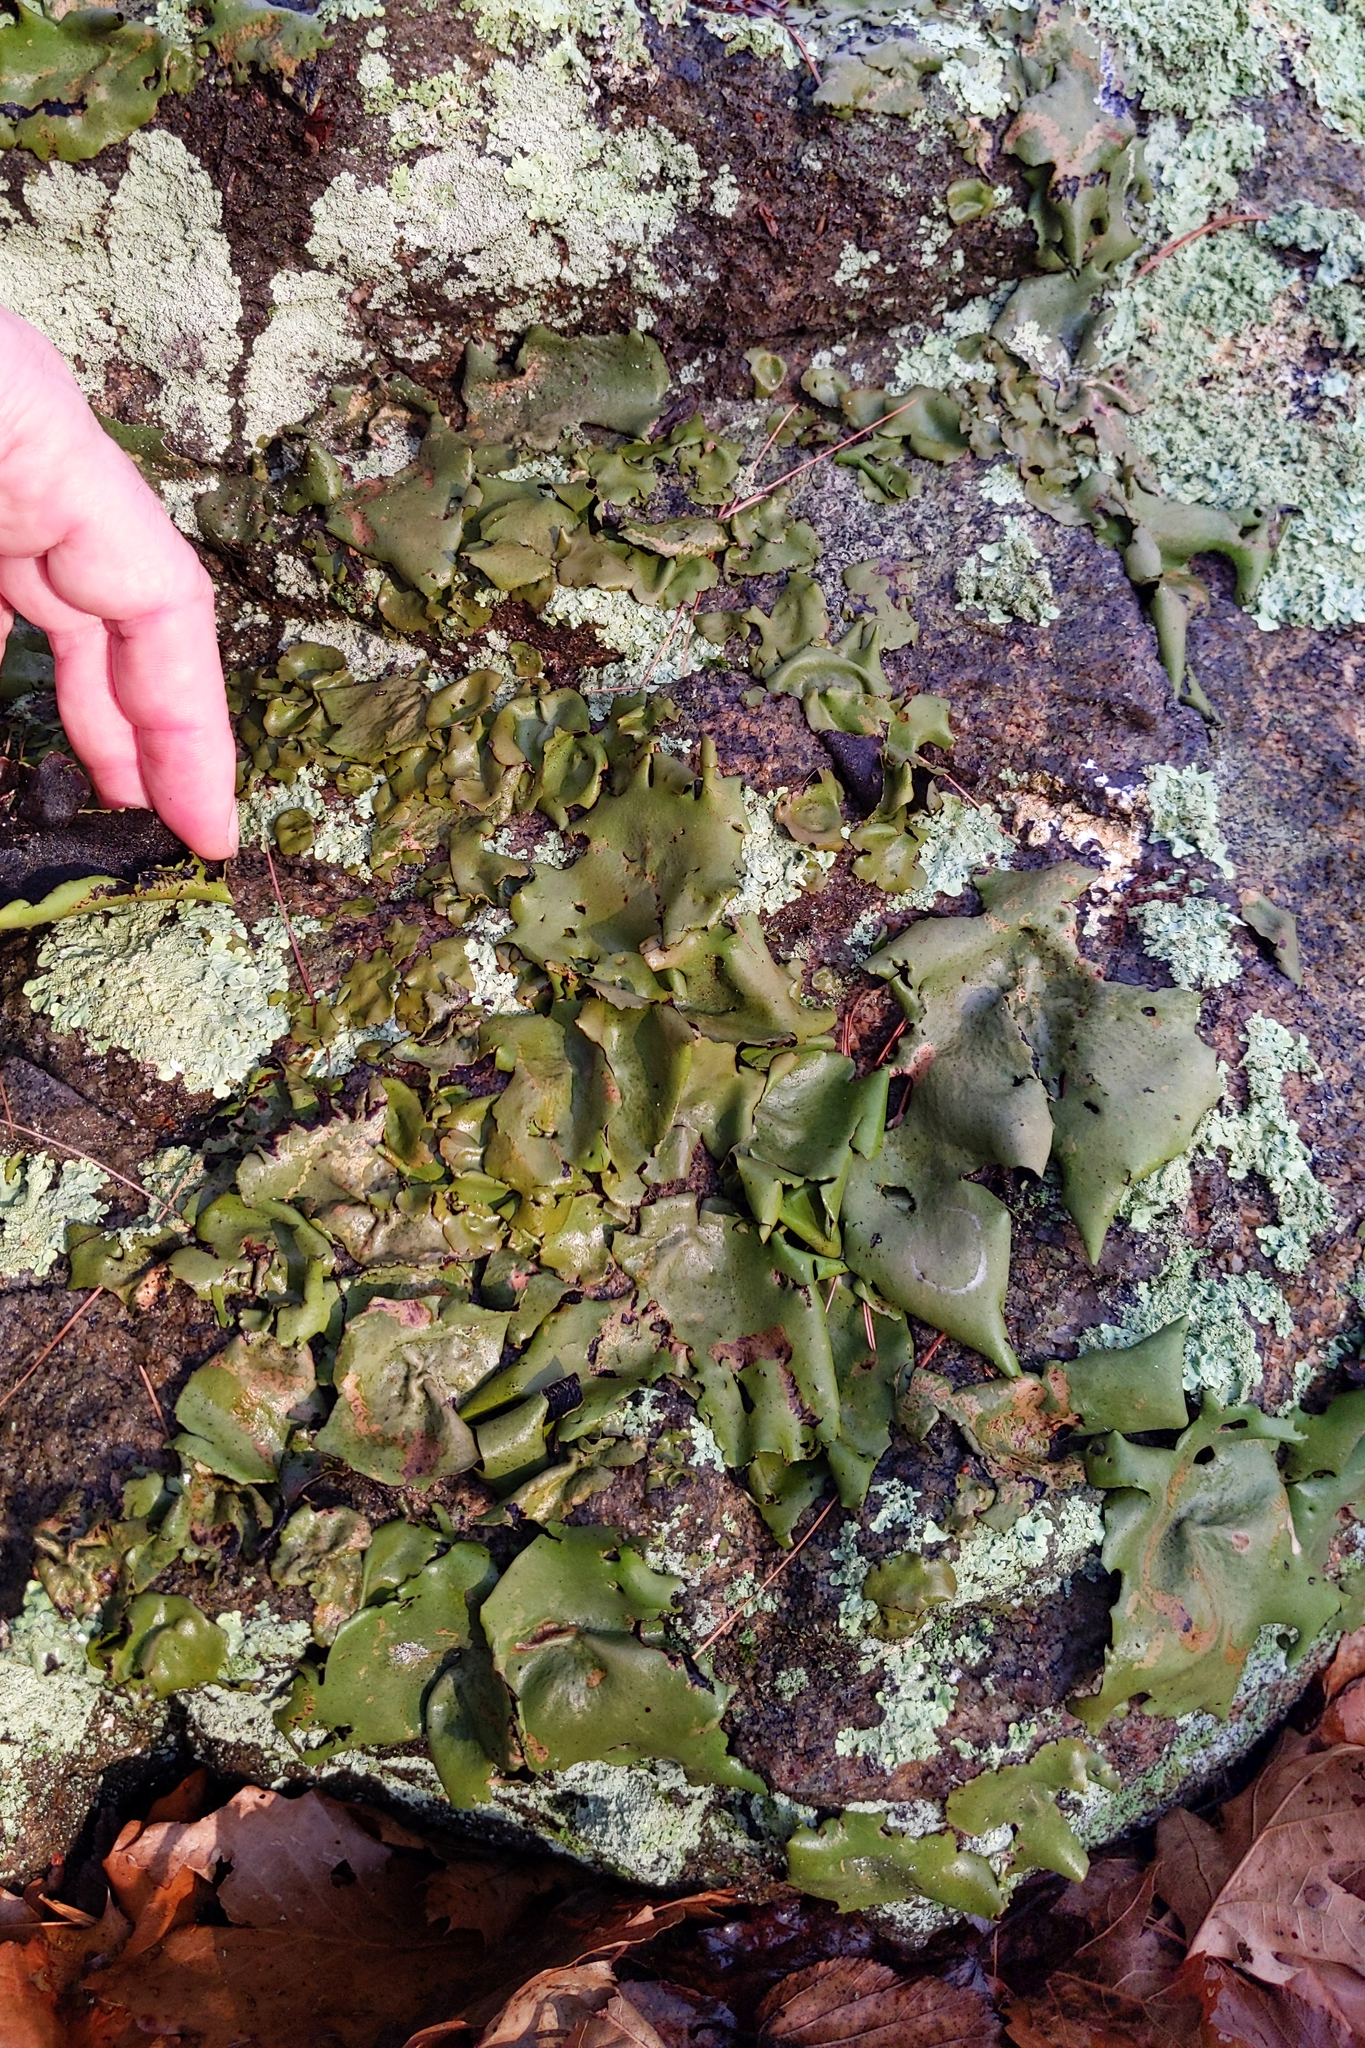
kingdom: Fungi
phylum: Ascomycota
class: Lecanoromycetes
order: Umbilicariales
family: Umbilicariaceae
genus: Umbilicaria
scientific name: Umbilicaria mammulata
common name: Smooth rock tripe
